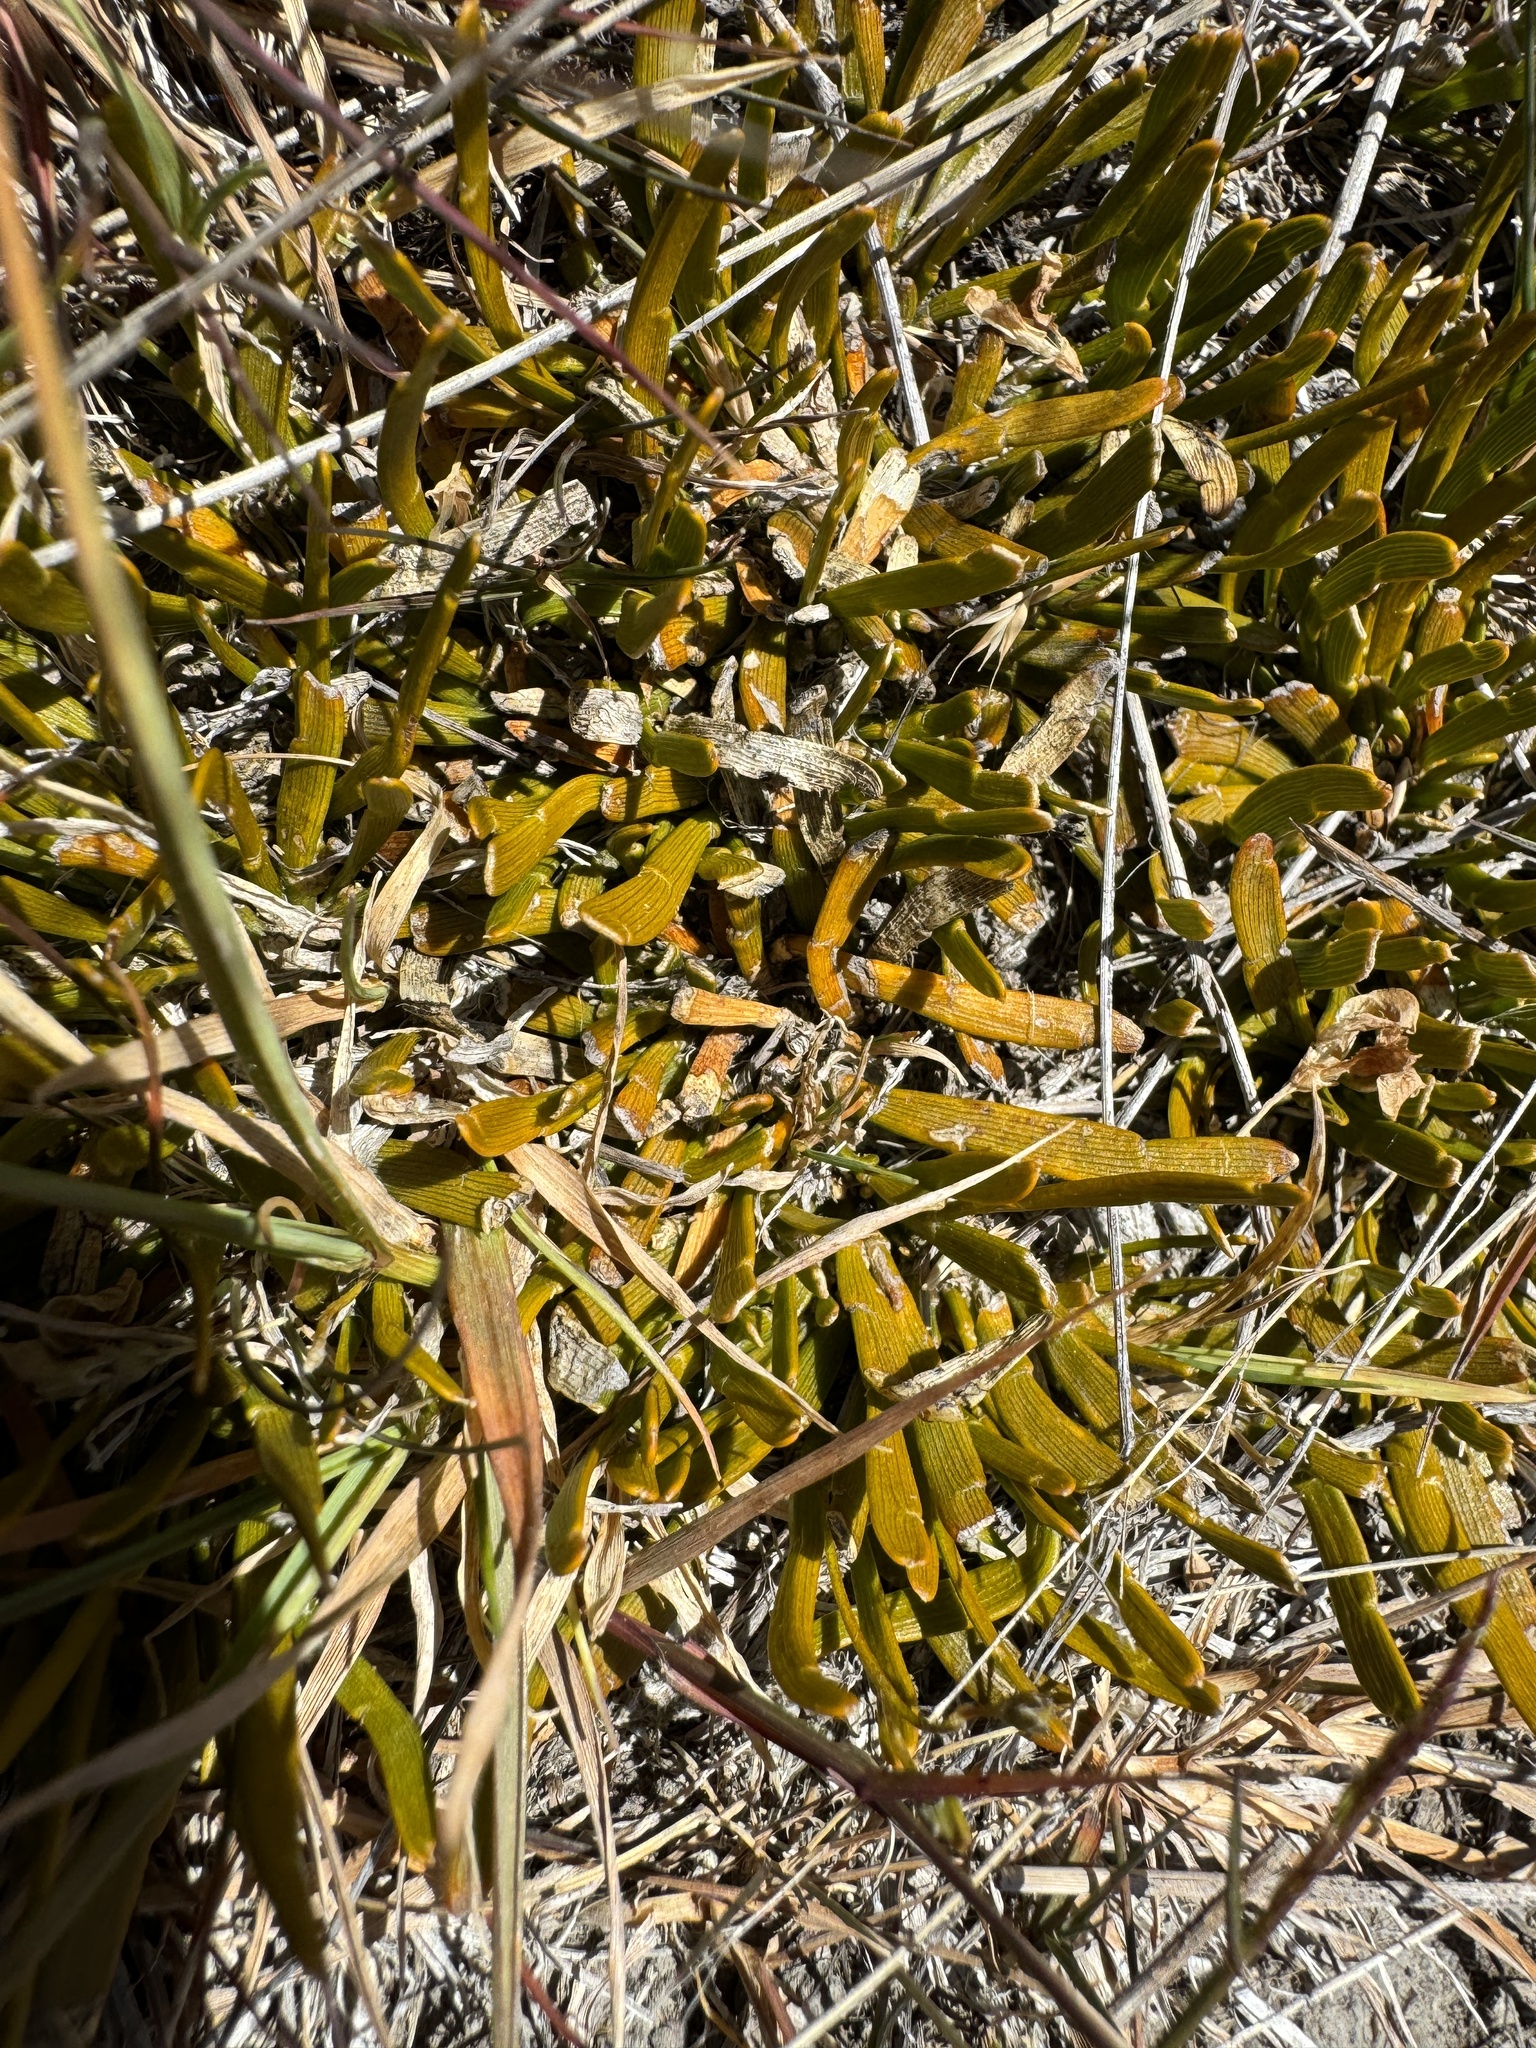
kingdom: Plantae
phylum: Tracheophyta
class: Magnoliopsida
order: Fabales
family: Fabaceae
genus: Carmichaelia
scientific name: Carmichaelia monroi
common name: Stout dwarf broom
